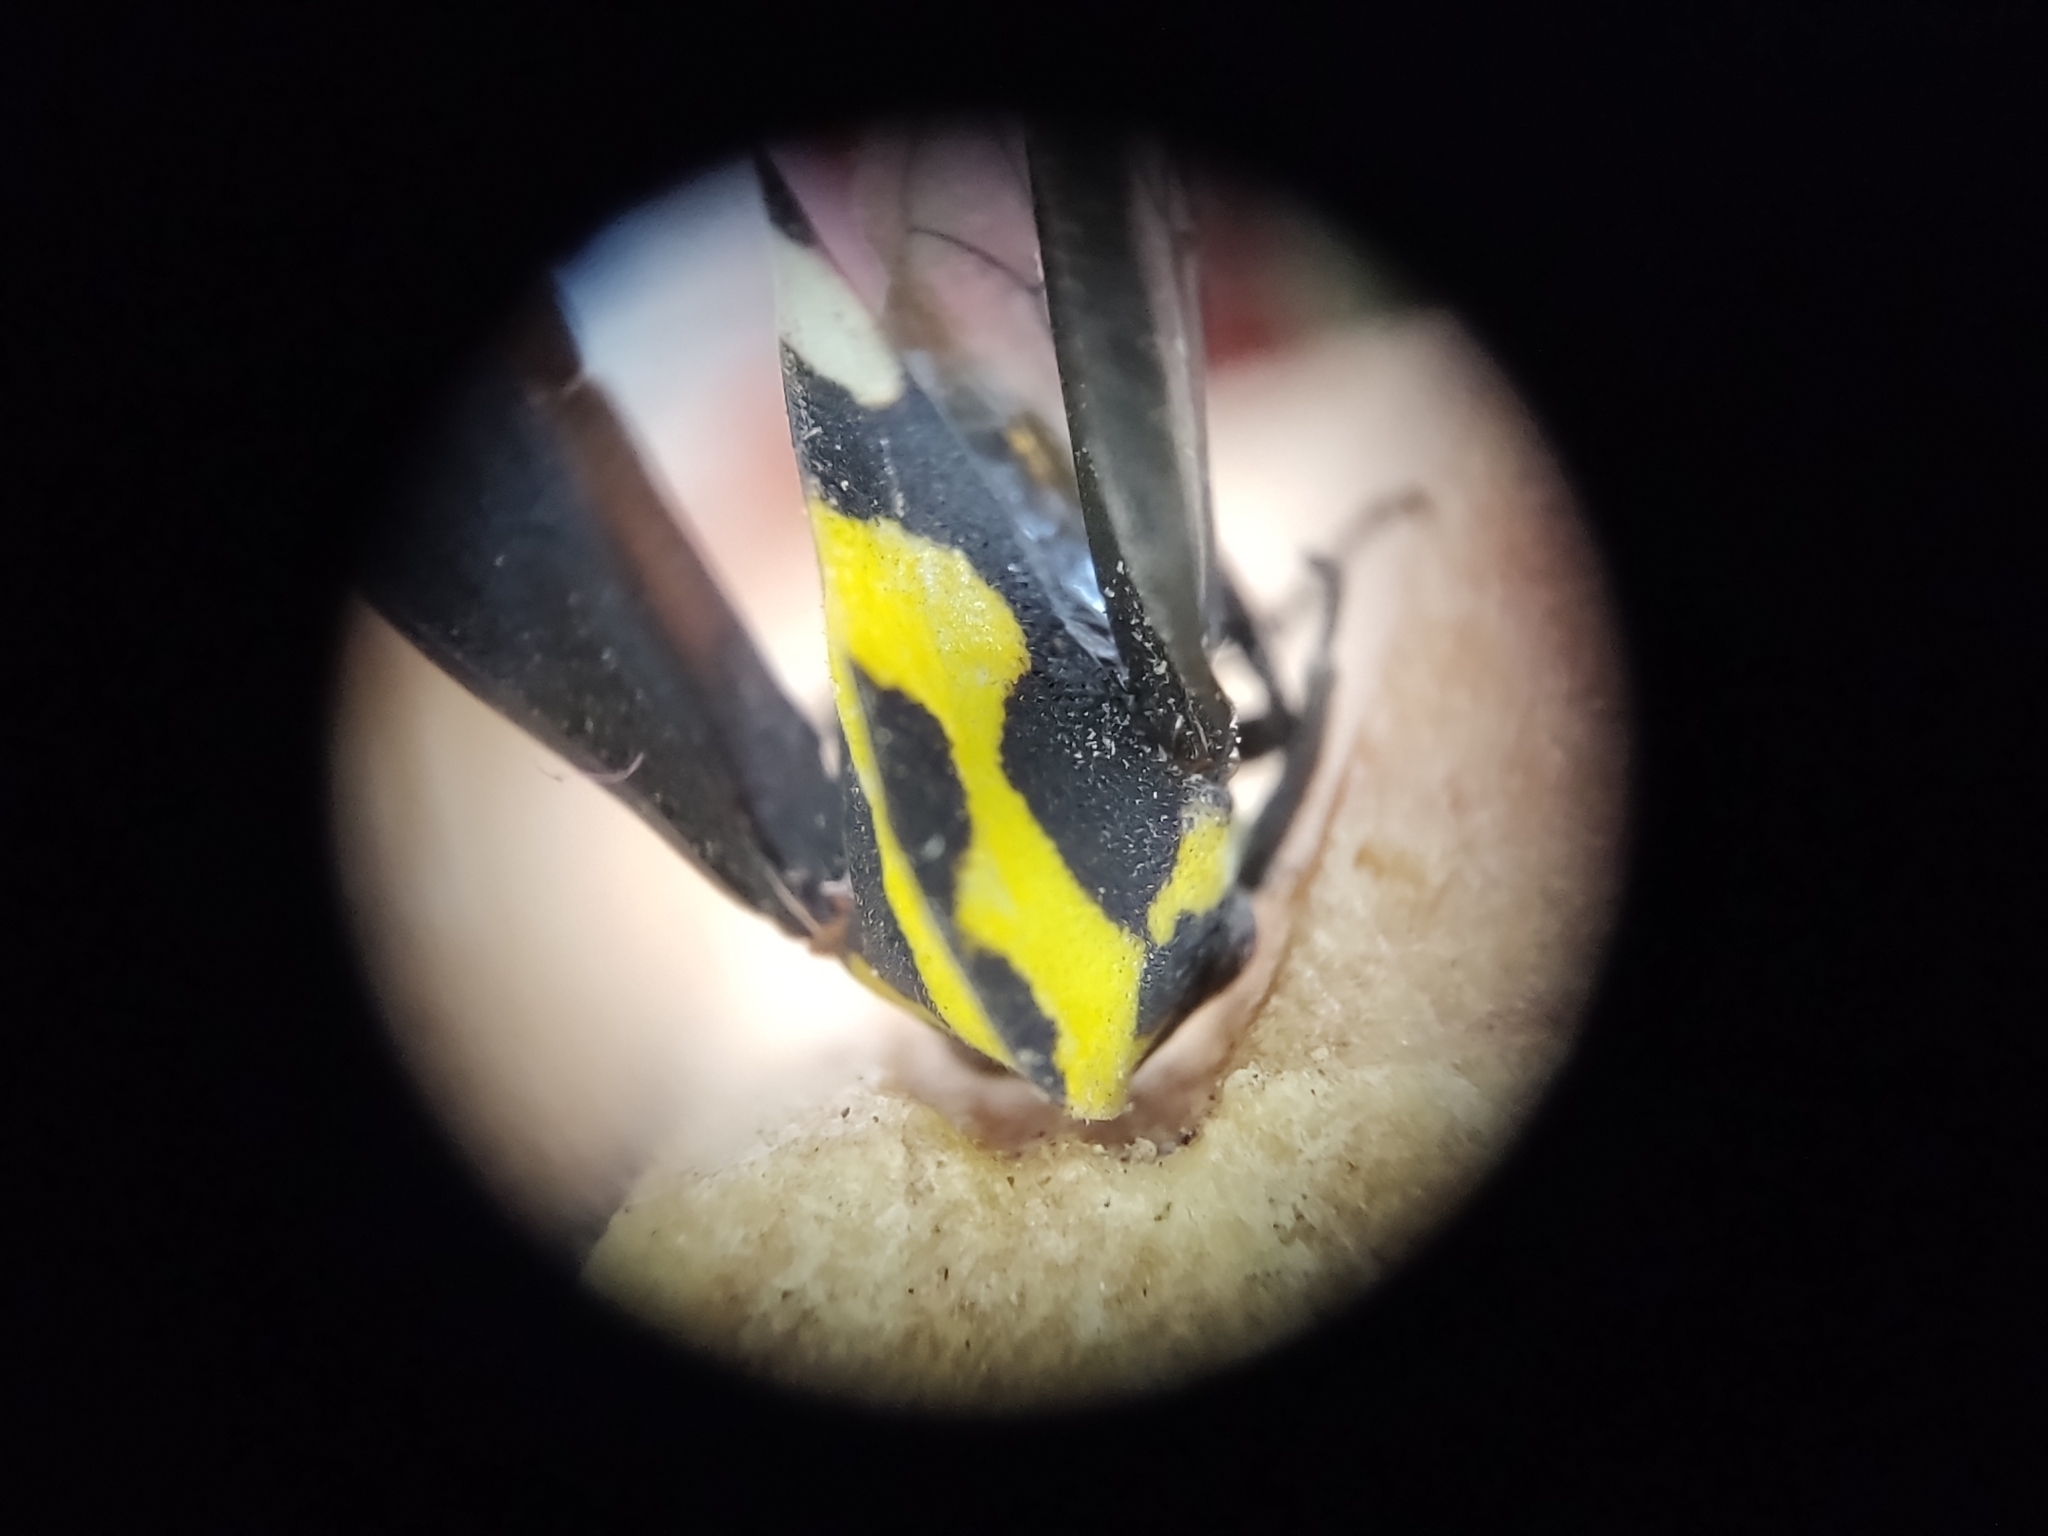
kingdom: Animalia
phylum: Arthropoda
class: Insecta
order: Hemiptera
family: Membracidae
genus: Membracis
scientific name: Membracis mexicana
